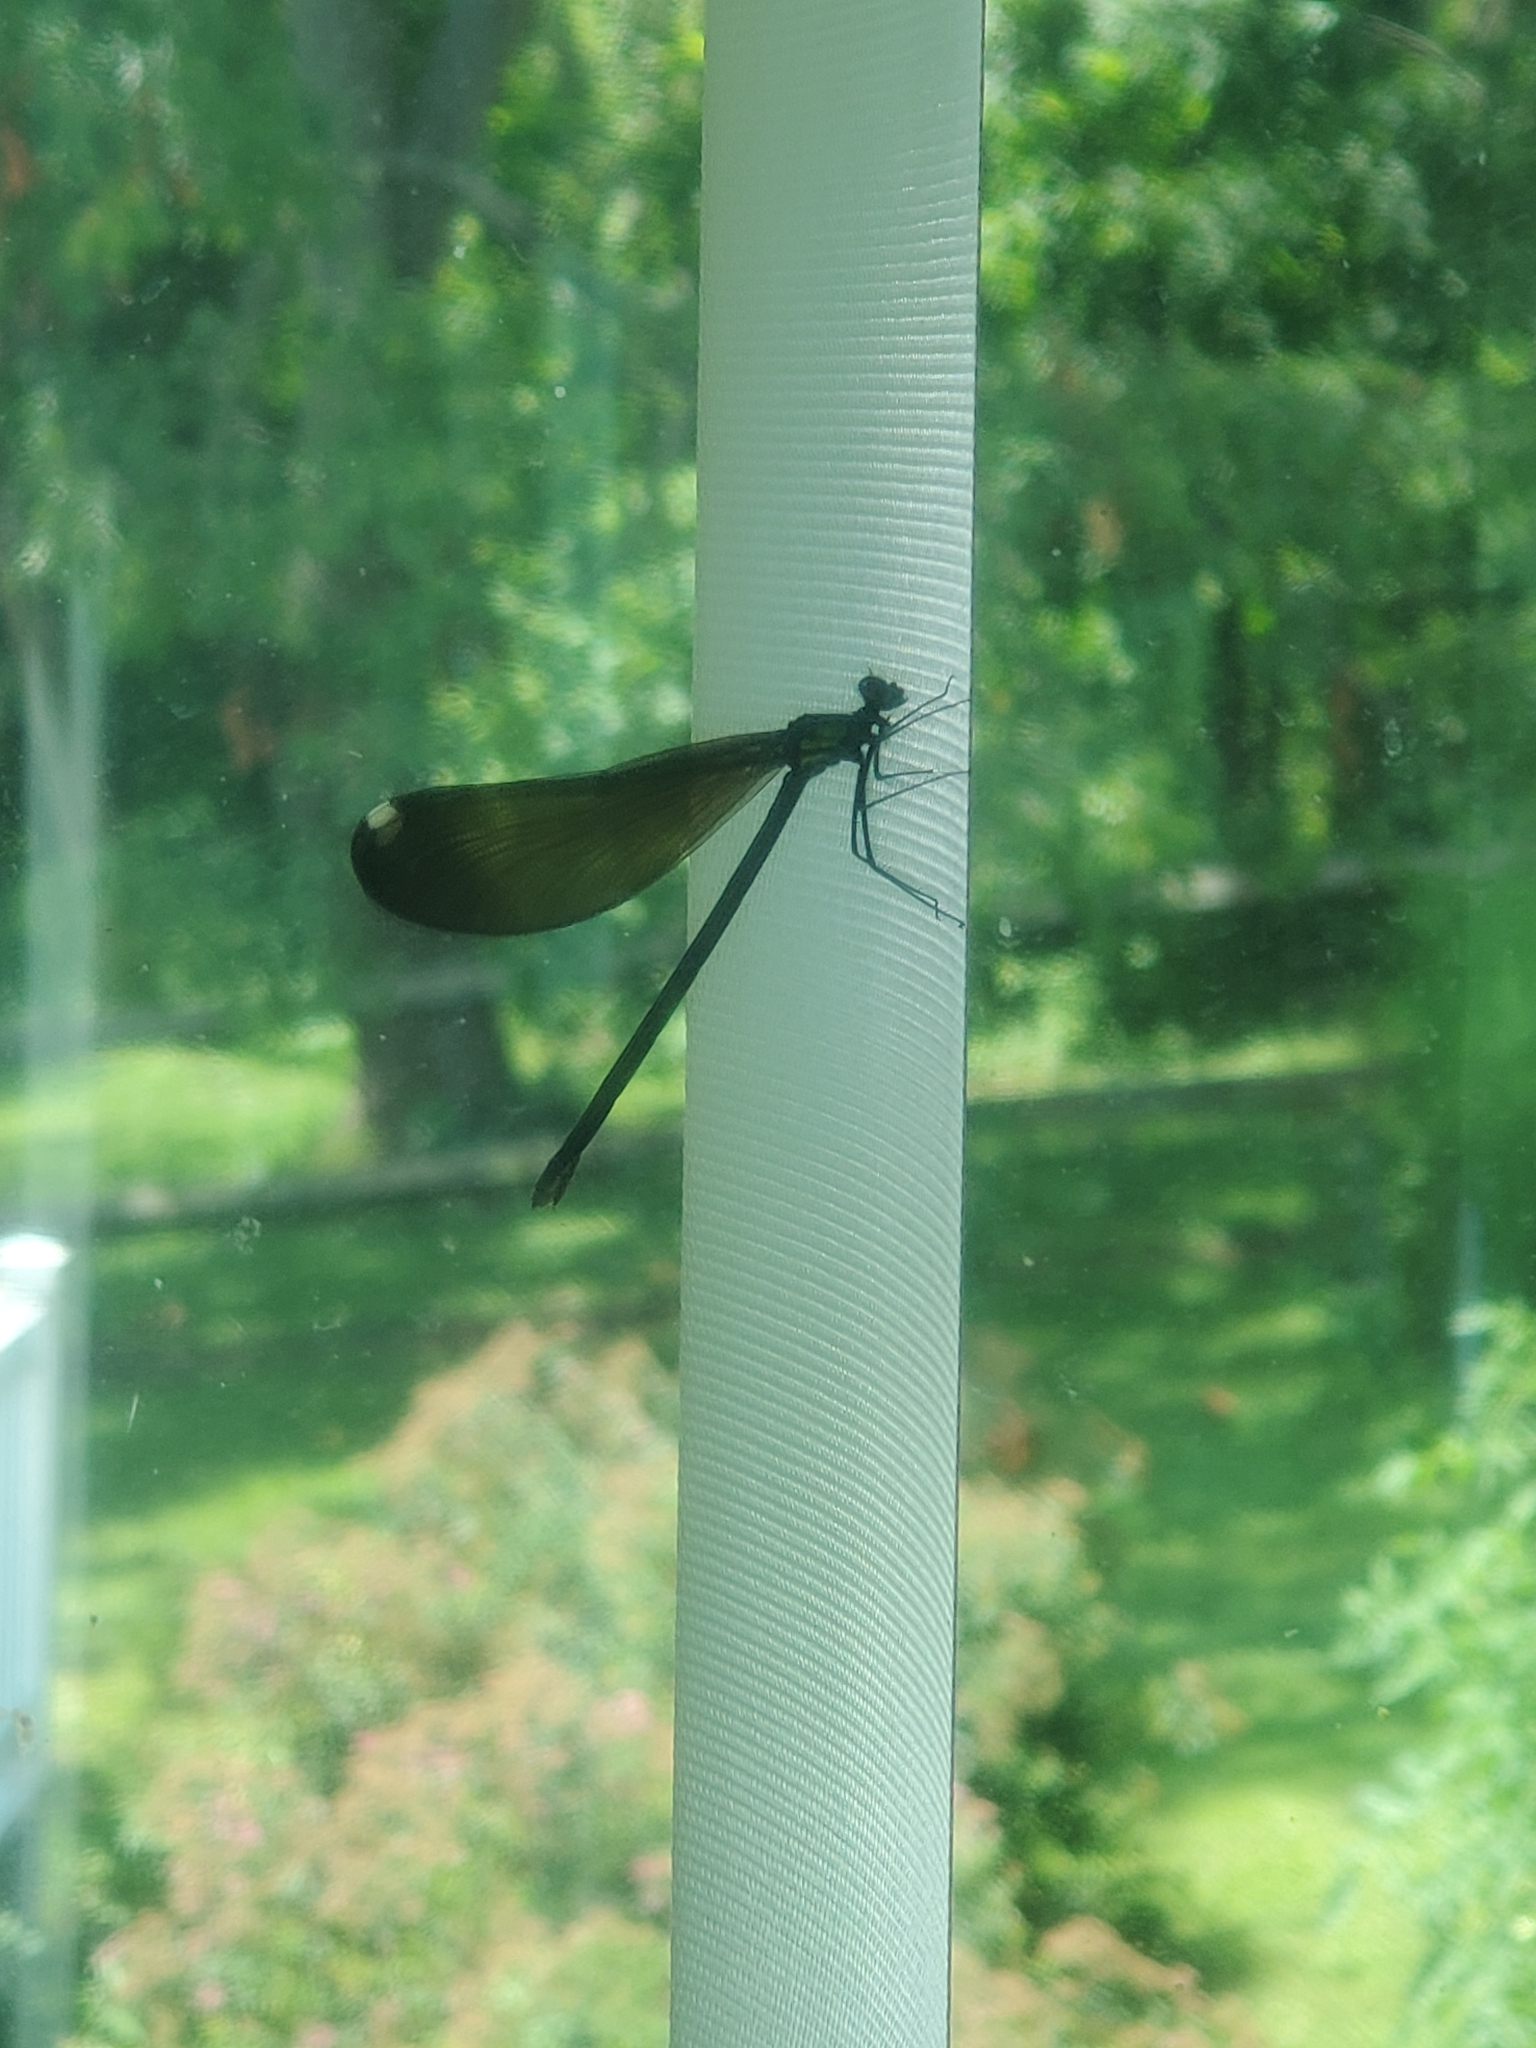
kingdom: Animalia
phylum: Arthropoda
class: Insecta
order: Odonata
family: Calopterygidae
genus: Calopteryx
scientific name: Calopteryx maculata
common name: Ebony jewelwing
